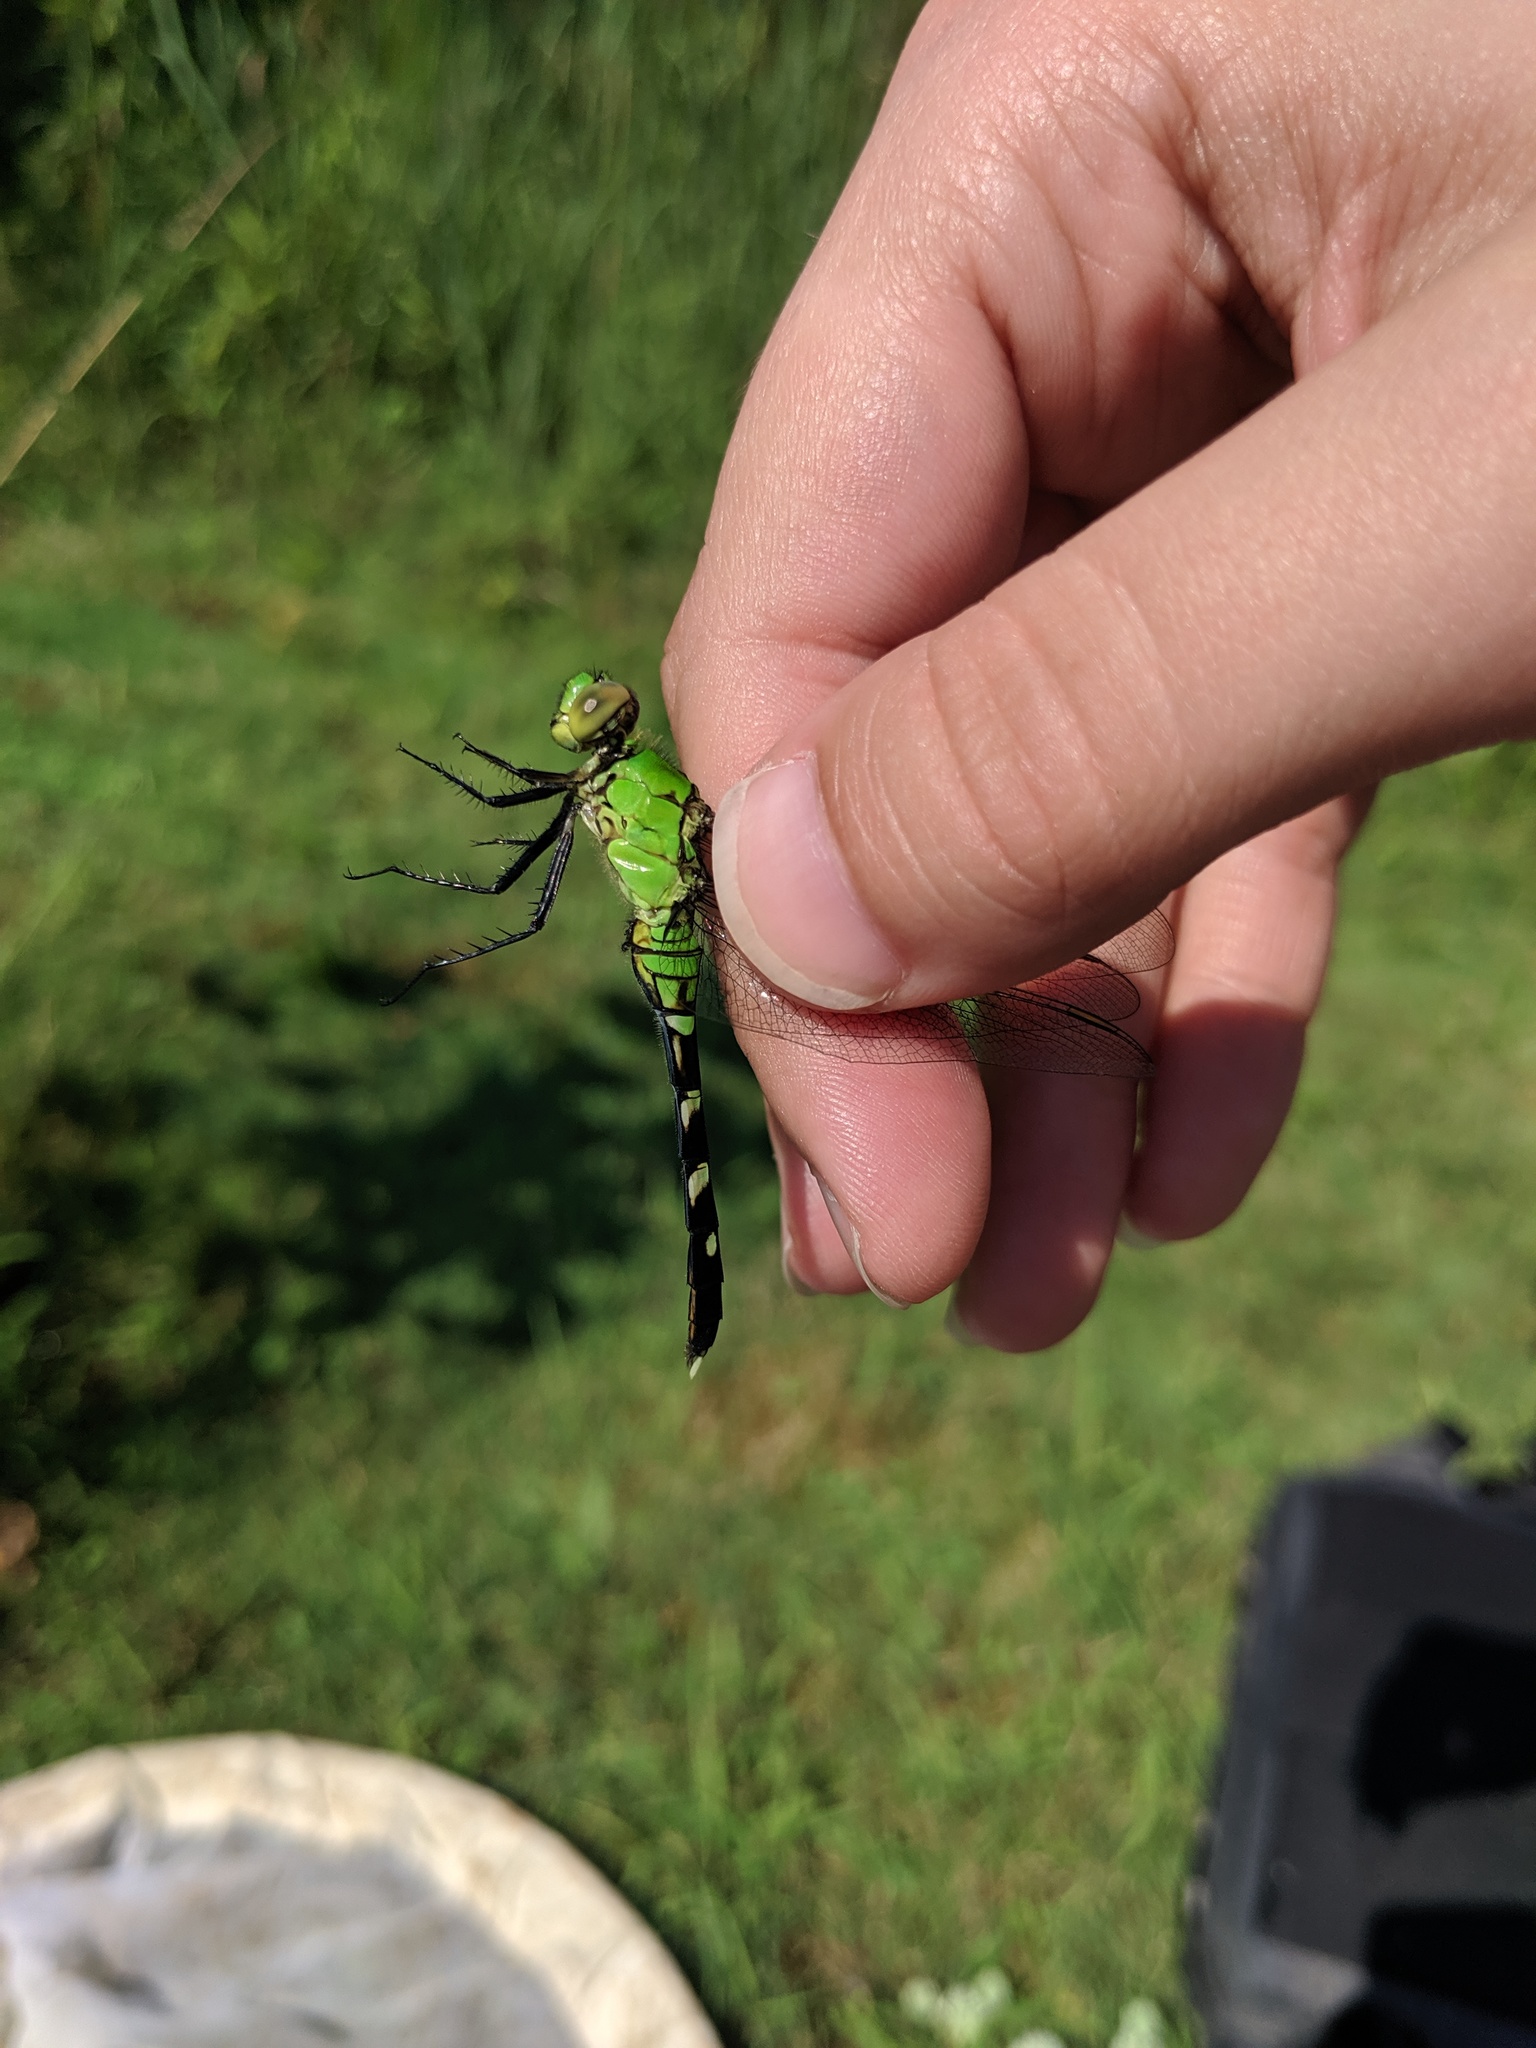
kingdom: Animalia
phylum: Arthropoda
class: Insecta
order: Odonata
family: Libellulidae
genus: Erythemis
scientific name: Erythemis simplicicollis
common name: Eastern pondhawk
